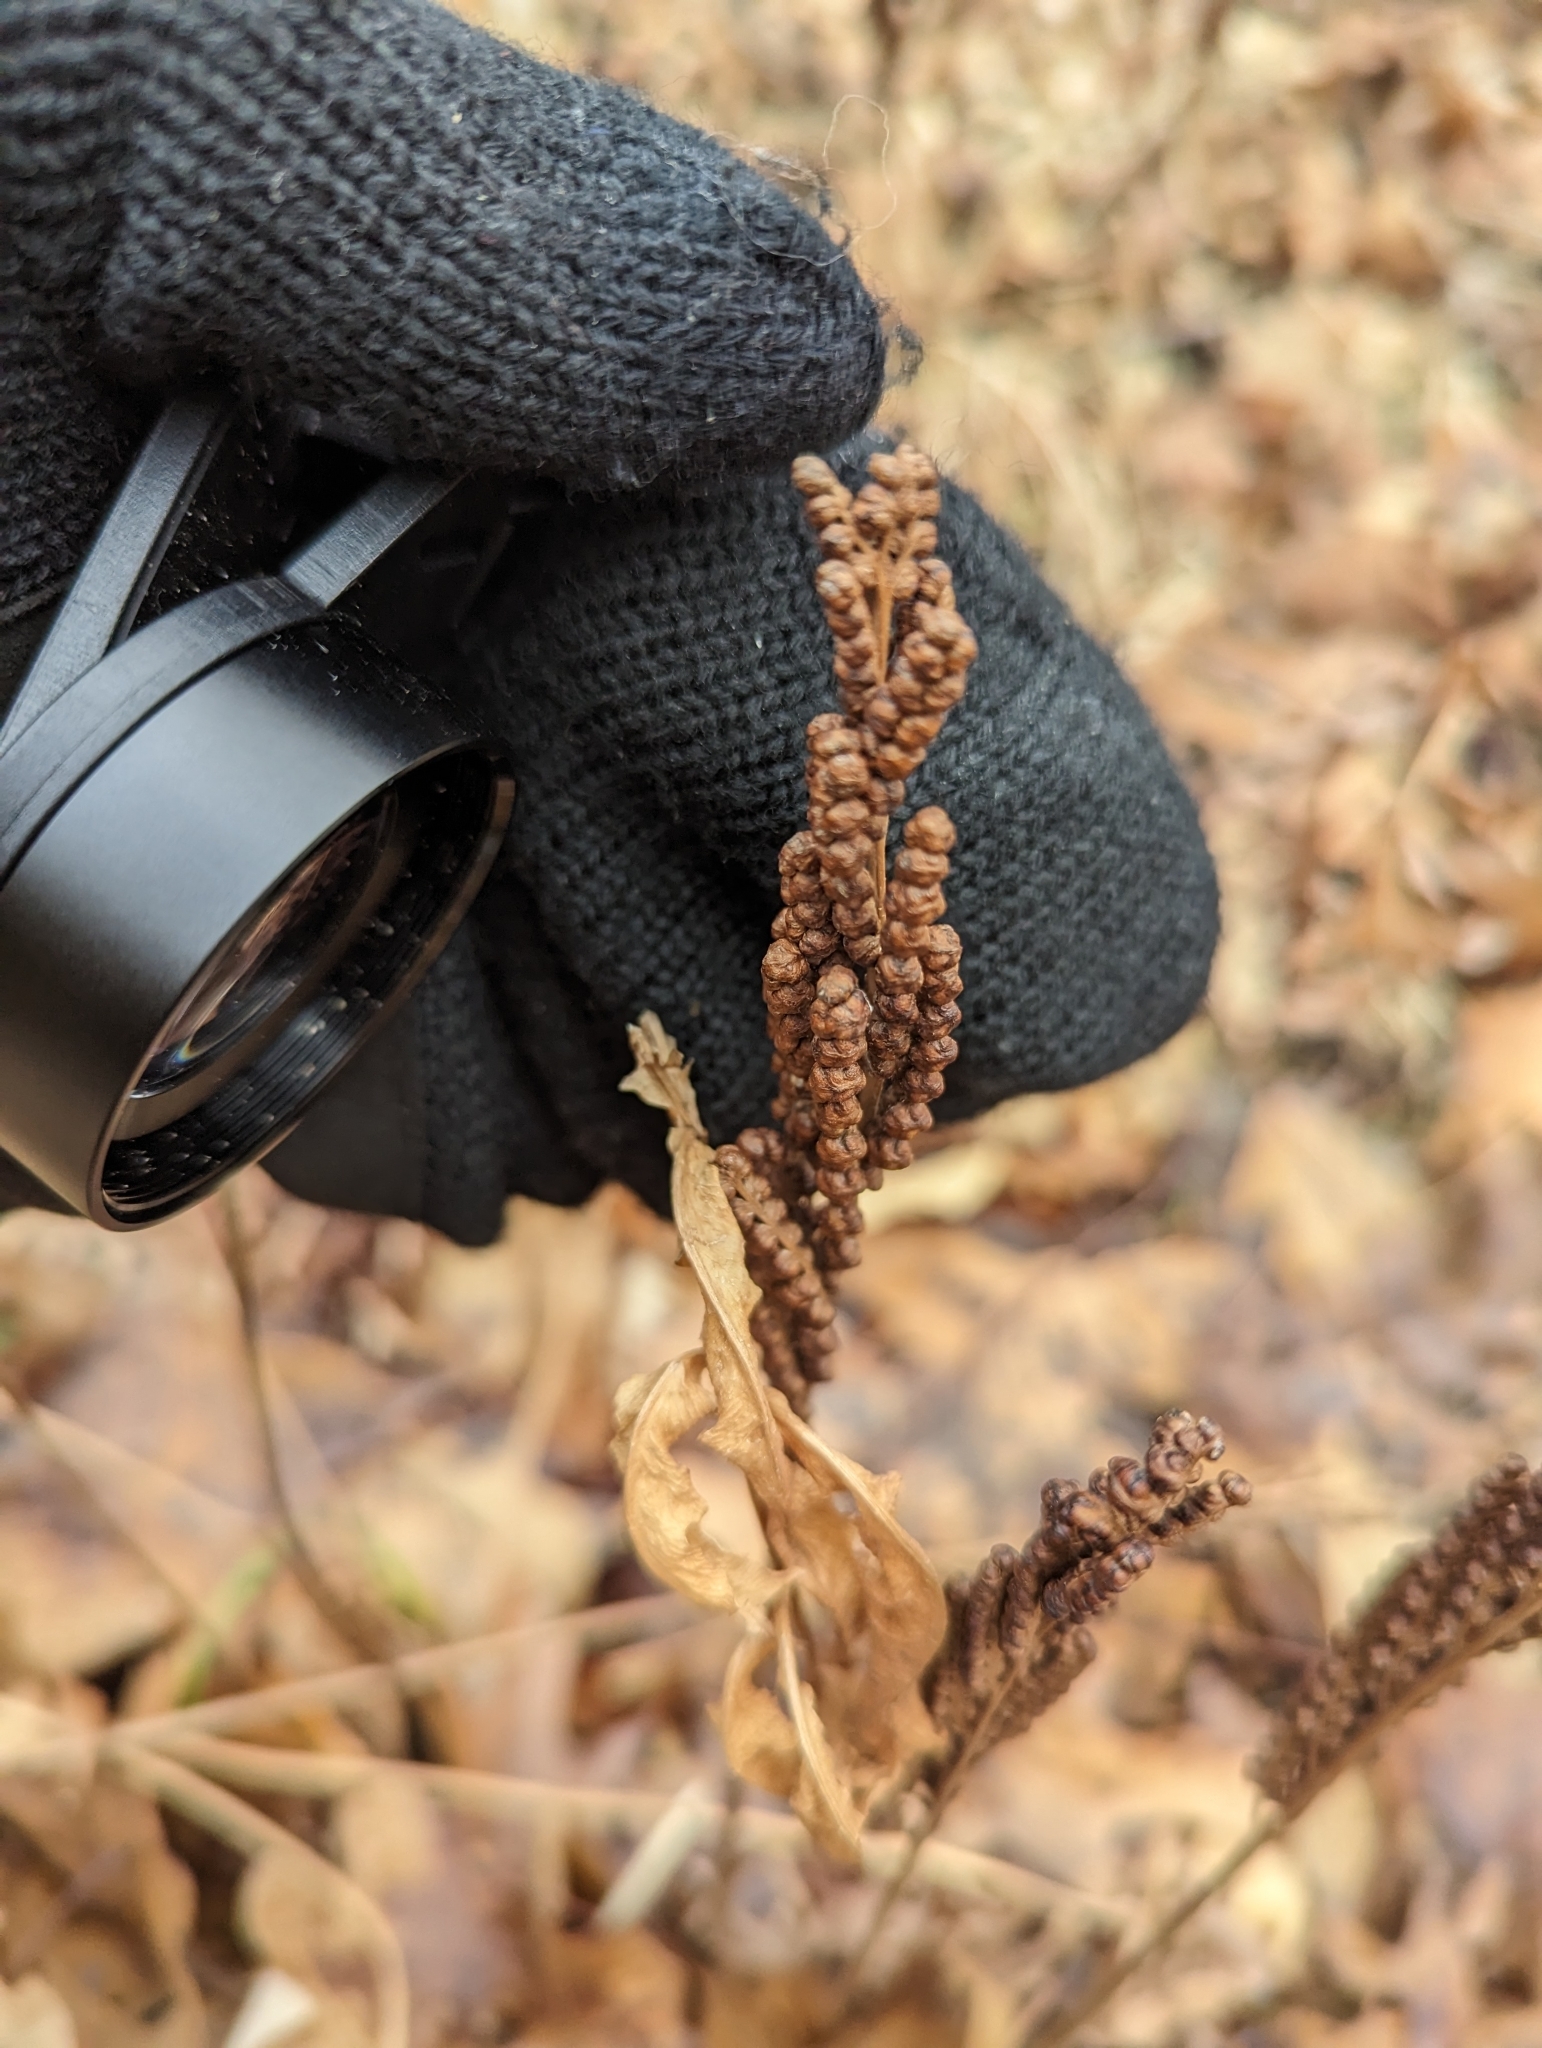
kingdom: Plantae
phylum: Tracheophyta
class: Polypodiopsida
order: Polypodiales
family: Onocleaceae
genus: Onoclea
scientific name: Onoclea sensibilis
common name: Sensitive fern
